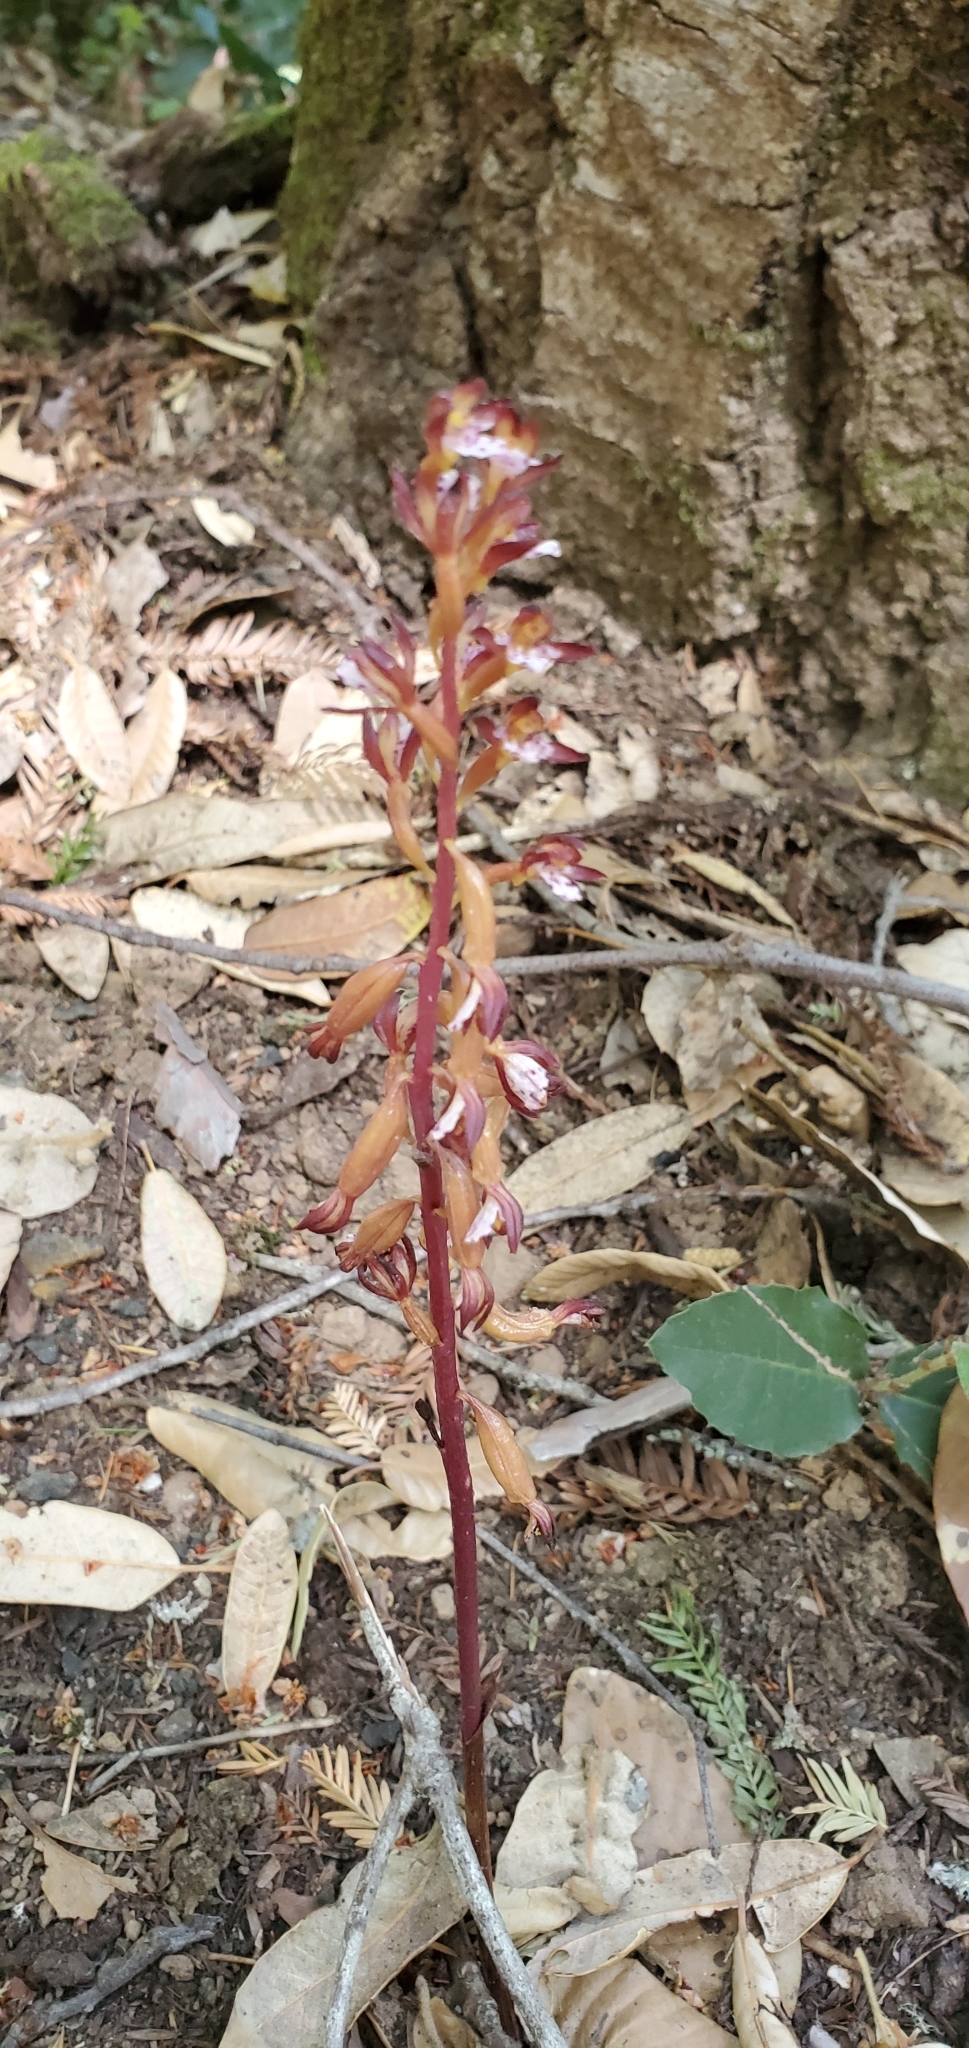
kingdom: Plantae
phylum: Tracheophyta
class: Liliopsida
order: Asparagales
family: Orchidaceae
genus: Corallorhiza
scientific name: Corallorhiza maculata
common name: Spotted coralroot
